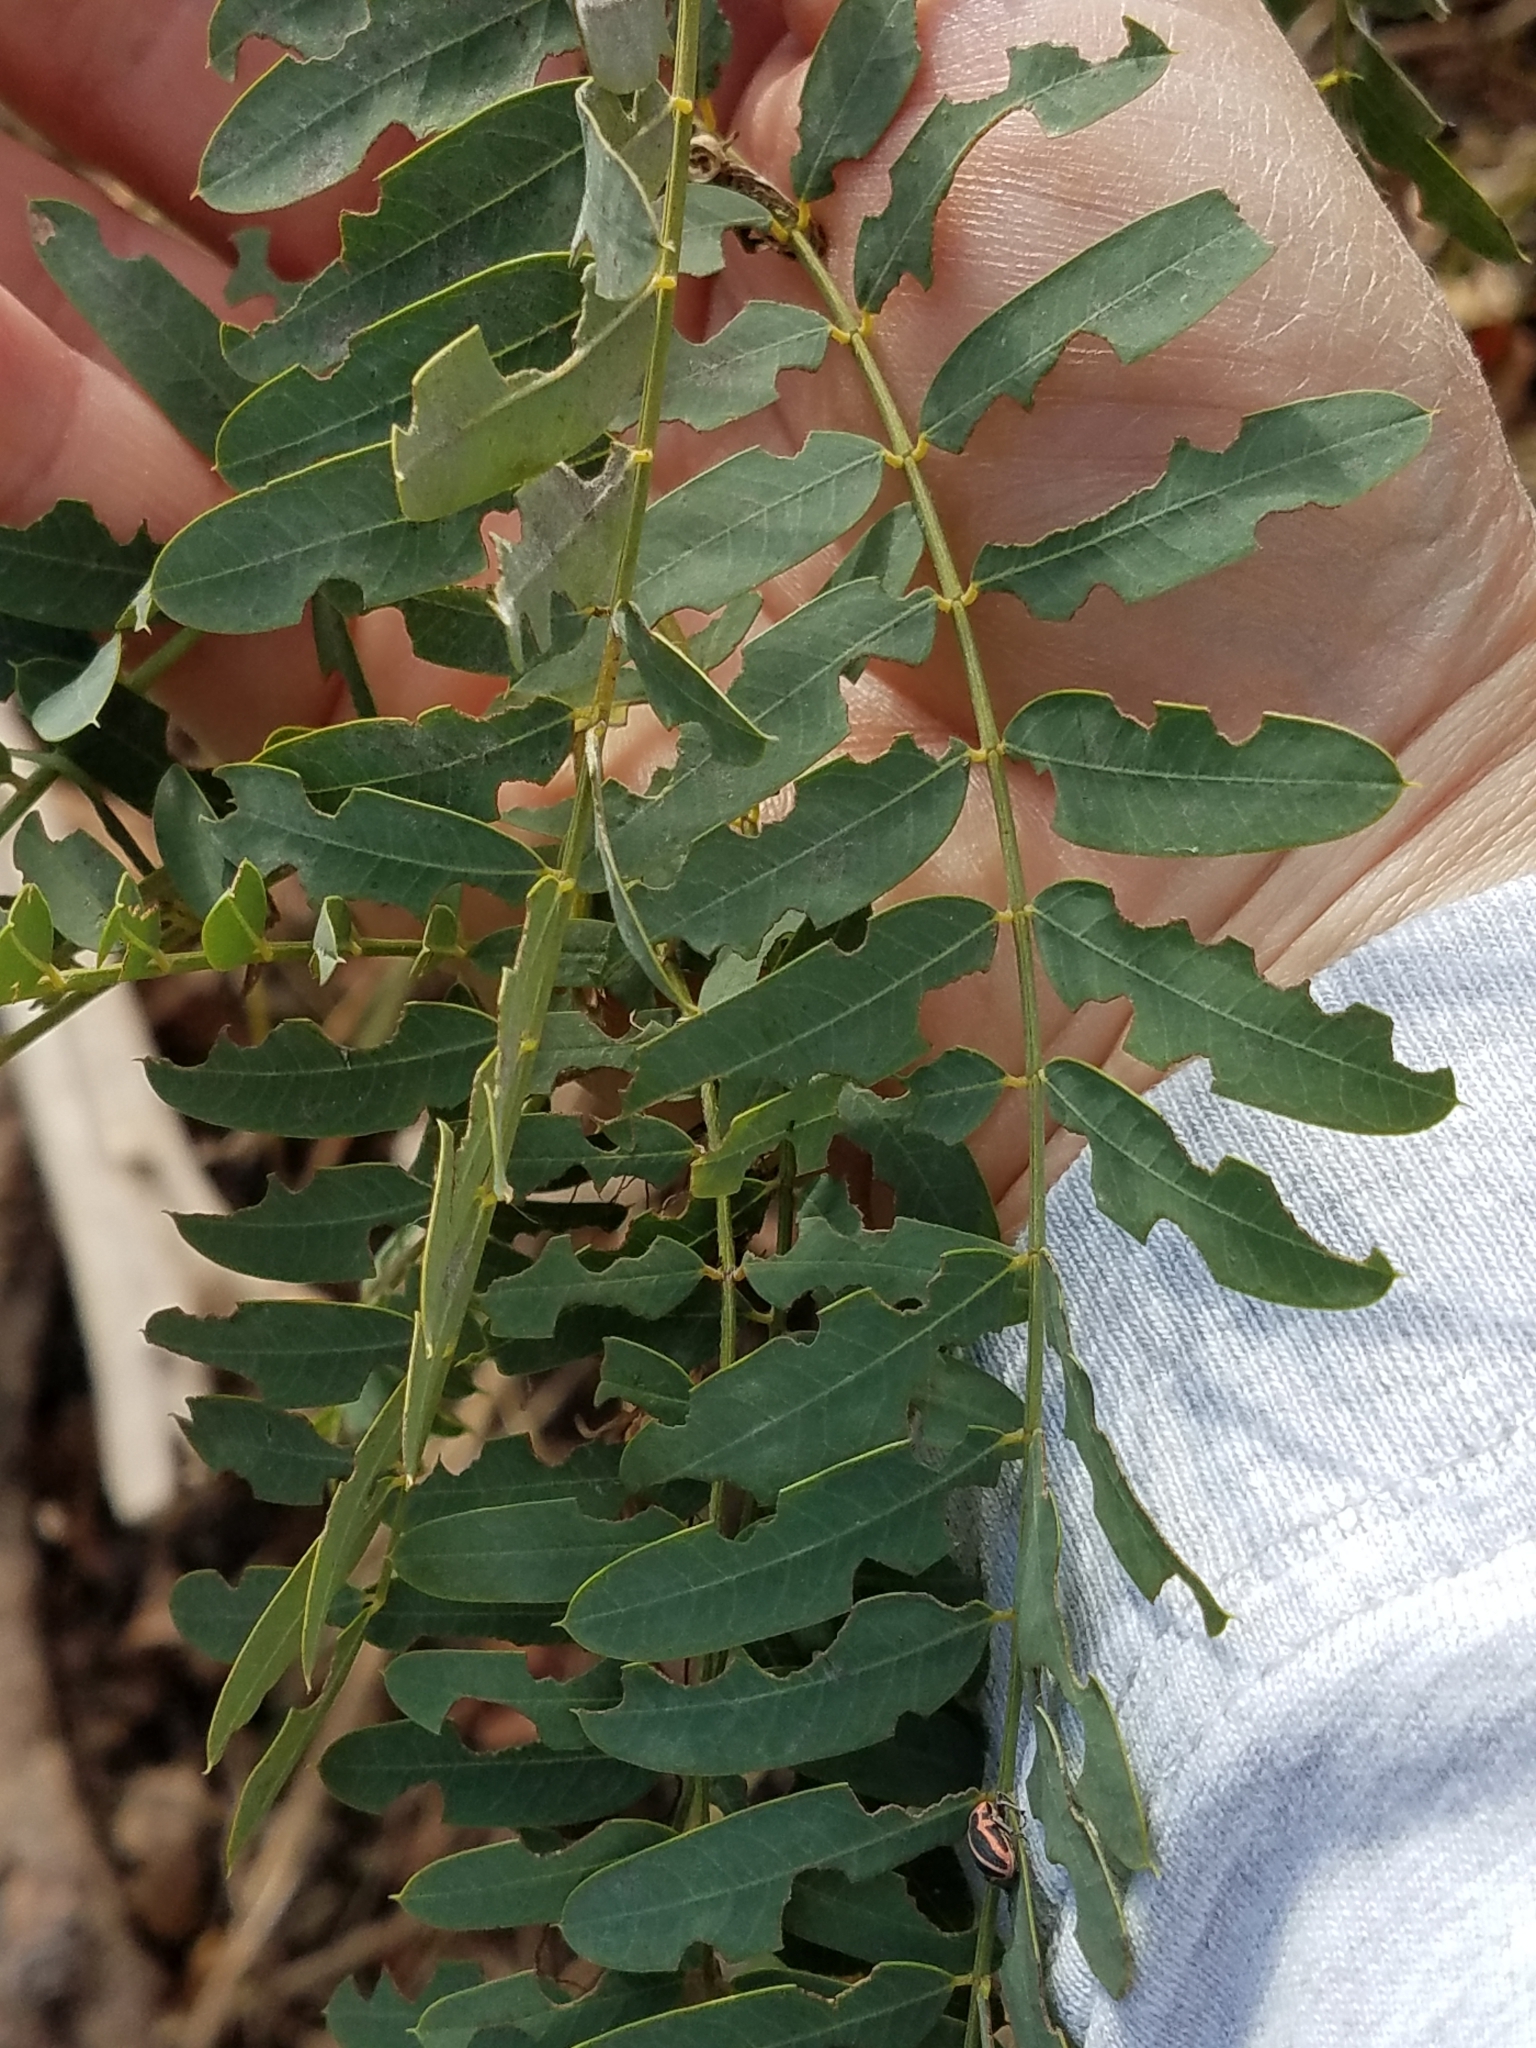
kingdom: Plantae
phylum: Tracheophyta
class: Magnoliopsida
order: Fabales
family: Fabaceae
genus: Sesbania
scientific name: Sesbania drummondii
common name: Poison-bean
